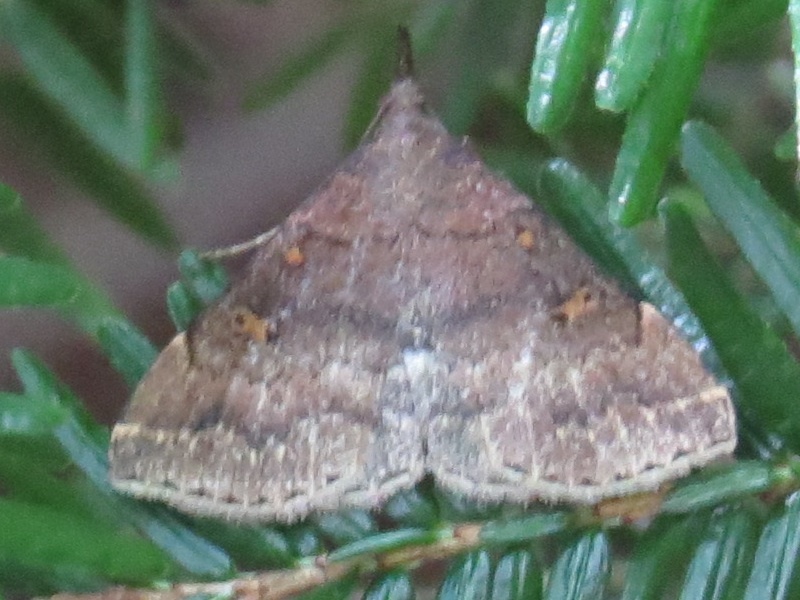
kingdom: Animalia
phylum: Arthropoda
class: Insecta
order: Lepidoptera
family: Erebidae
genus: Renia
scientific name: Renia factiosalis
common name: Sociable renia moth
